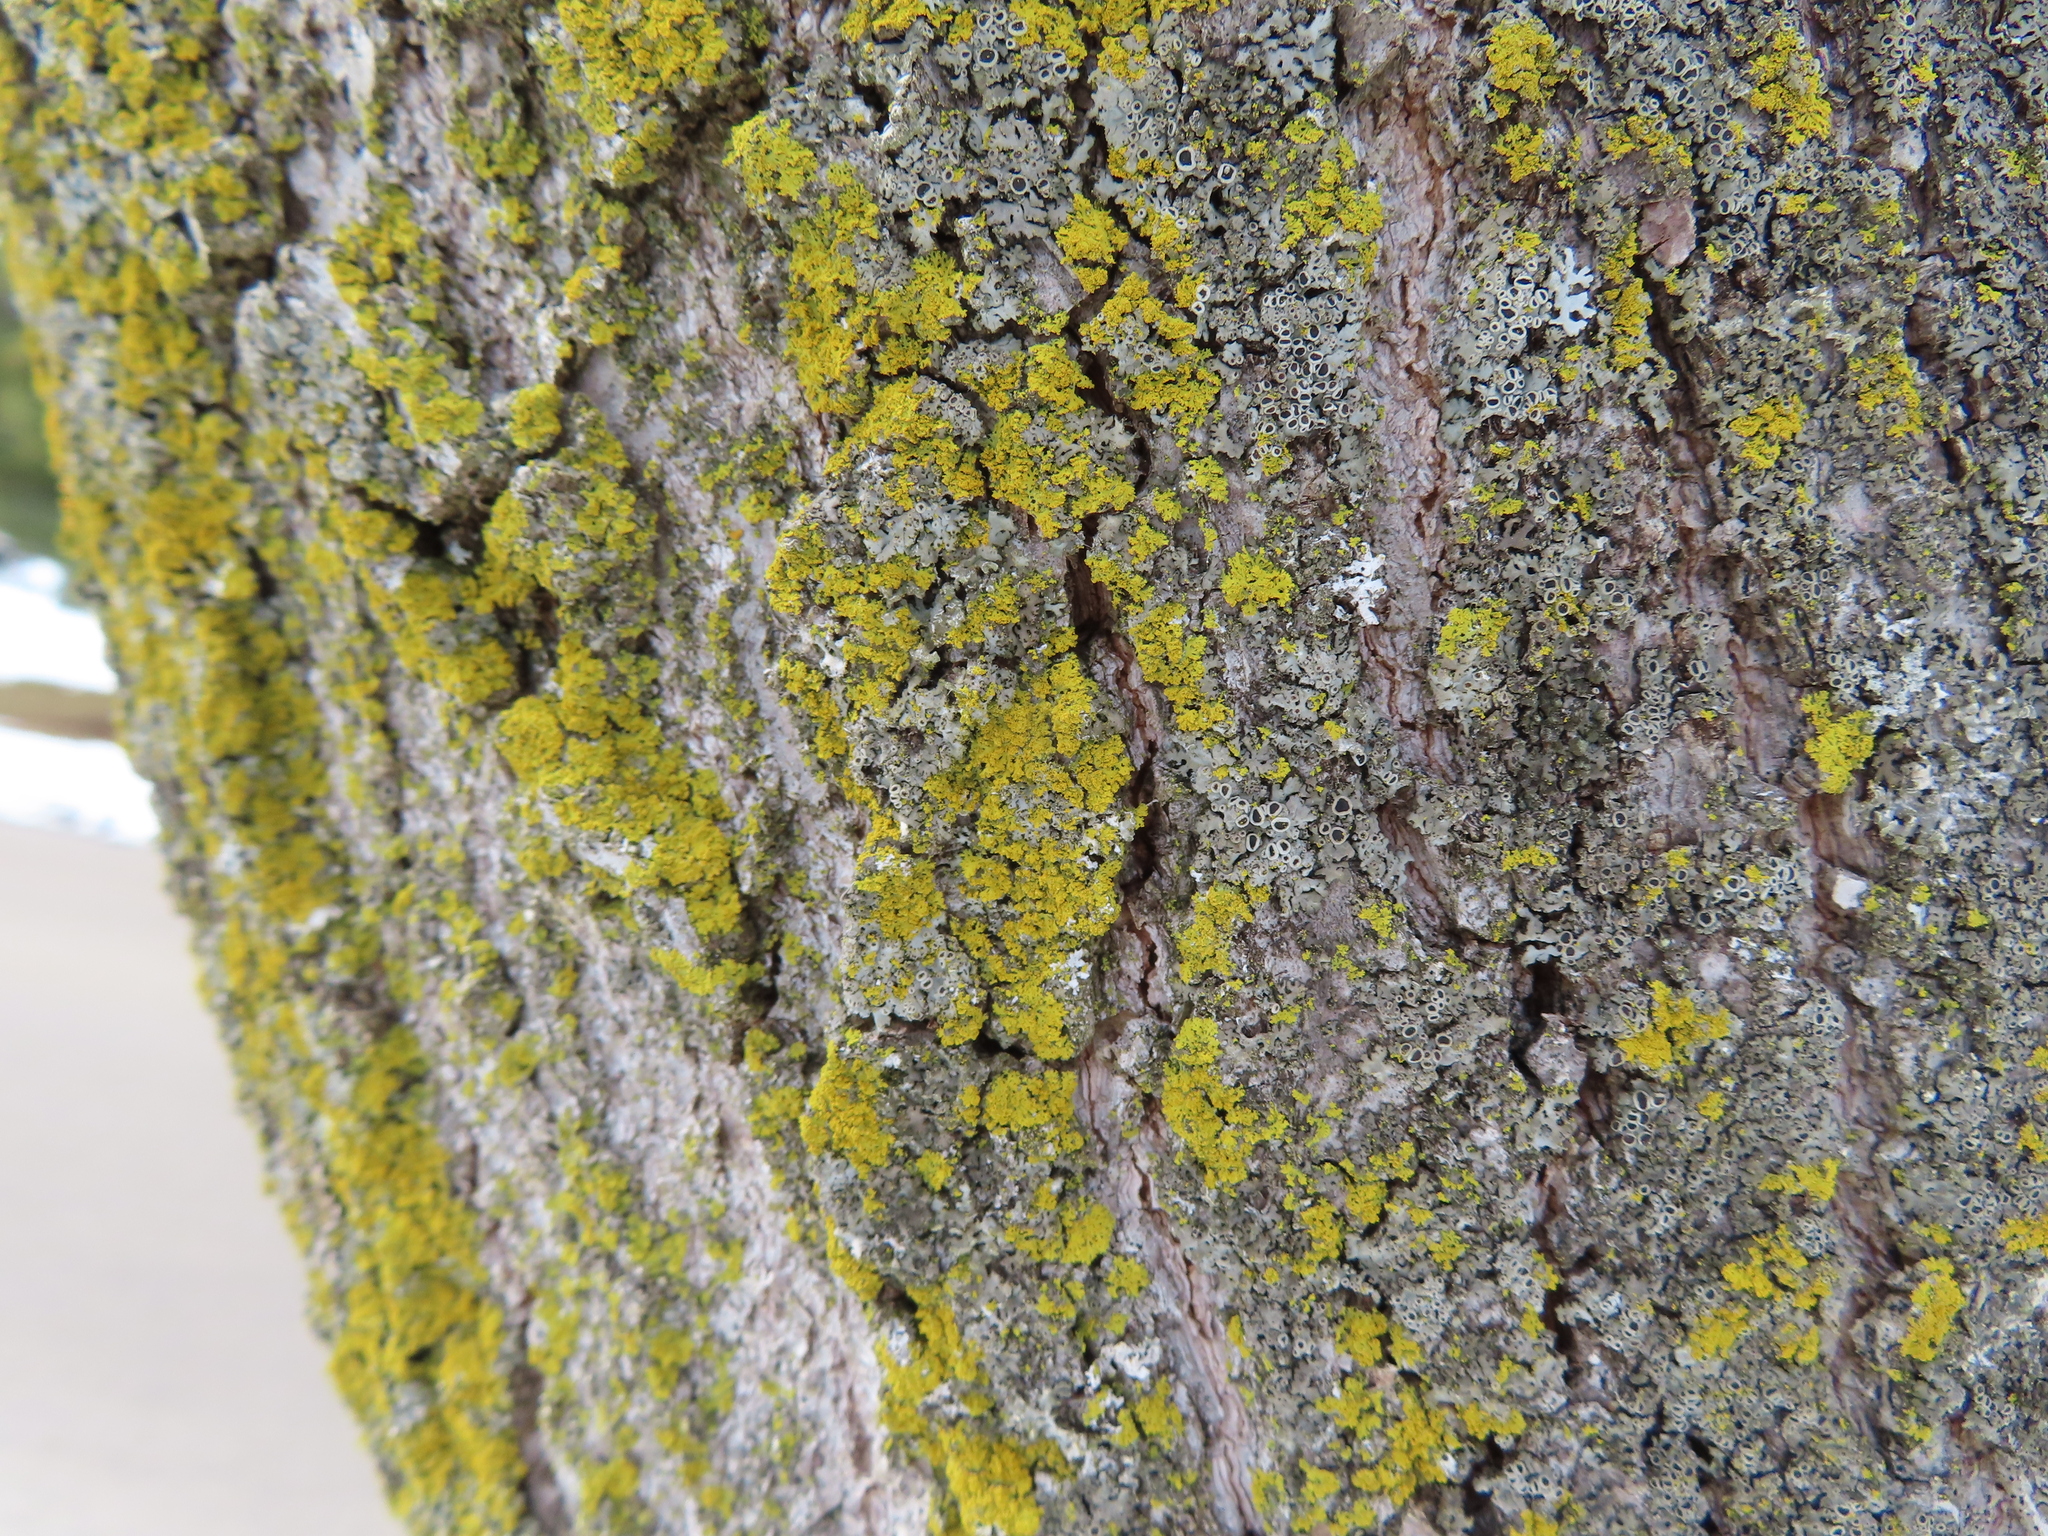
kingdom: Fungi
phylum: Ascomycota
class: Candelariomycetes
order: Candelariales
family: Candelariaceae
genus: Candelaria
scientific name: Candelaria concolor
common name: Candleflame lichen
